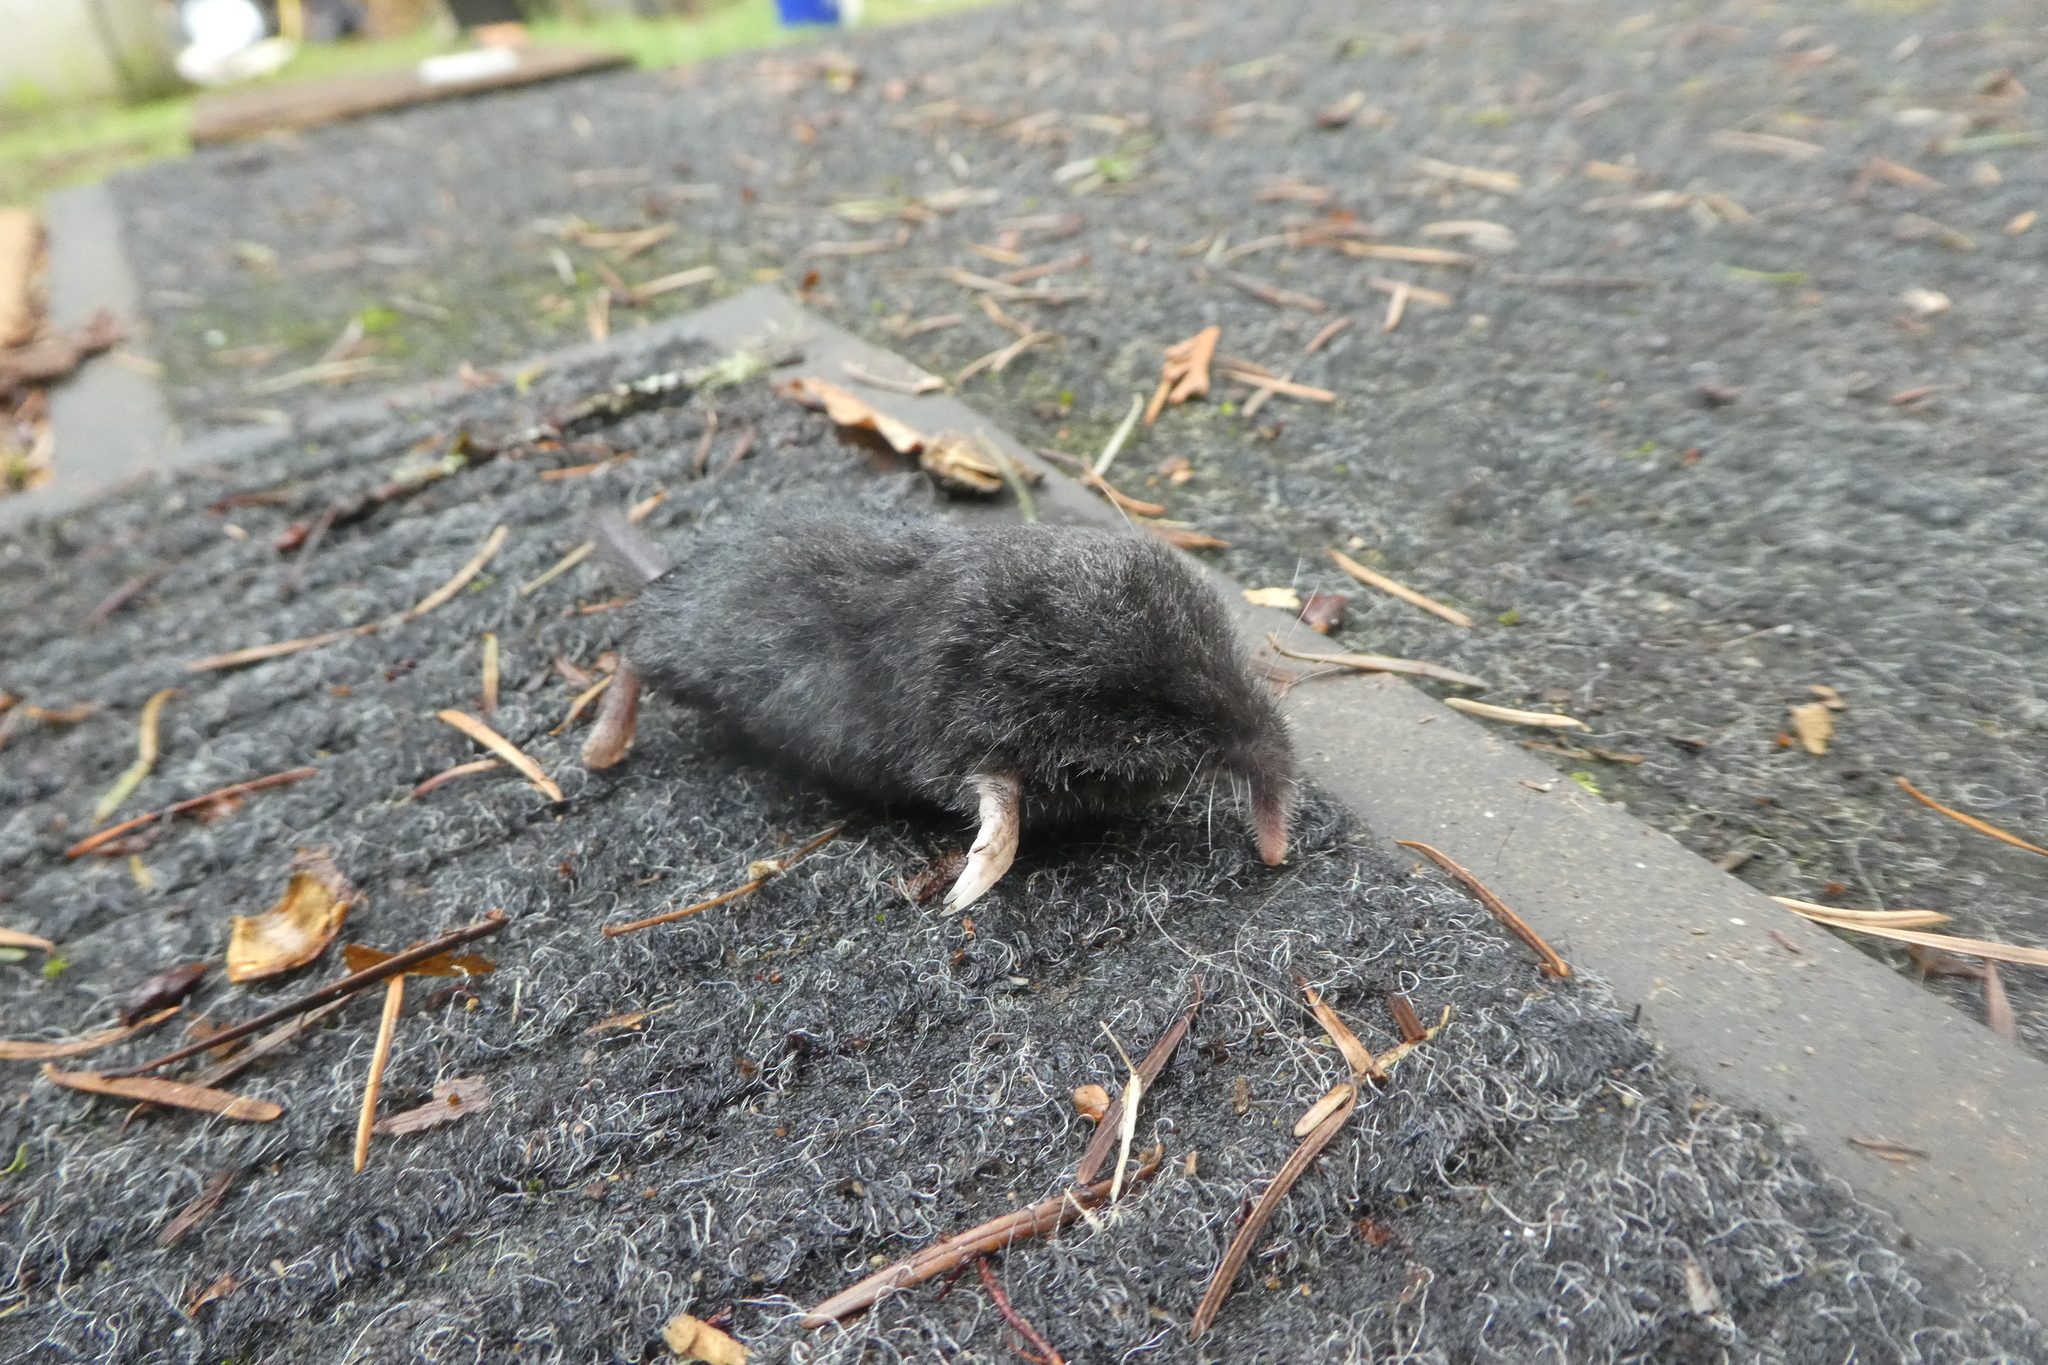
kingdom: Animalia
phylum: Chordata
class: Mammalia
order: Soricomorpha
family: Talpidae
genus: Neurotrichus
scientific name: Neurotrichus gibbsii
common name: American shrew mole
